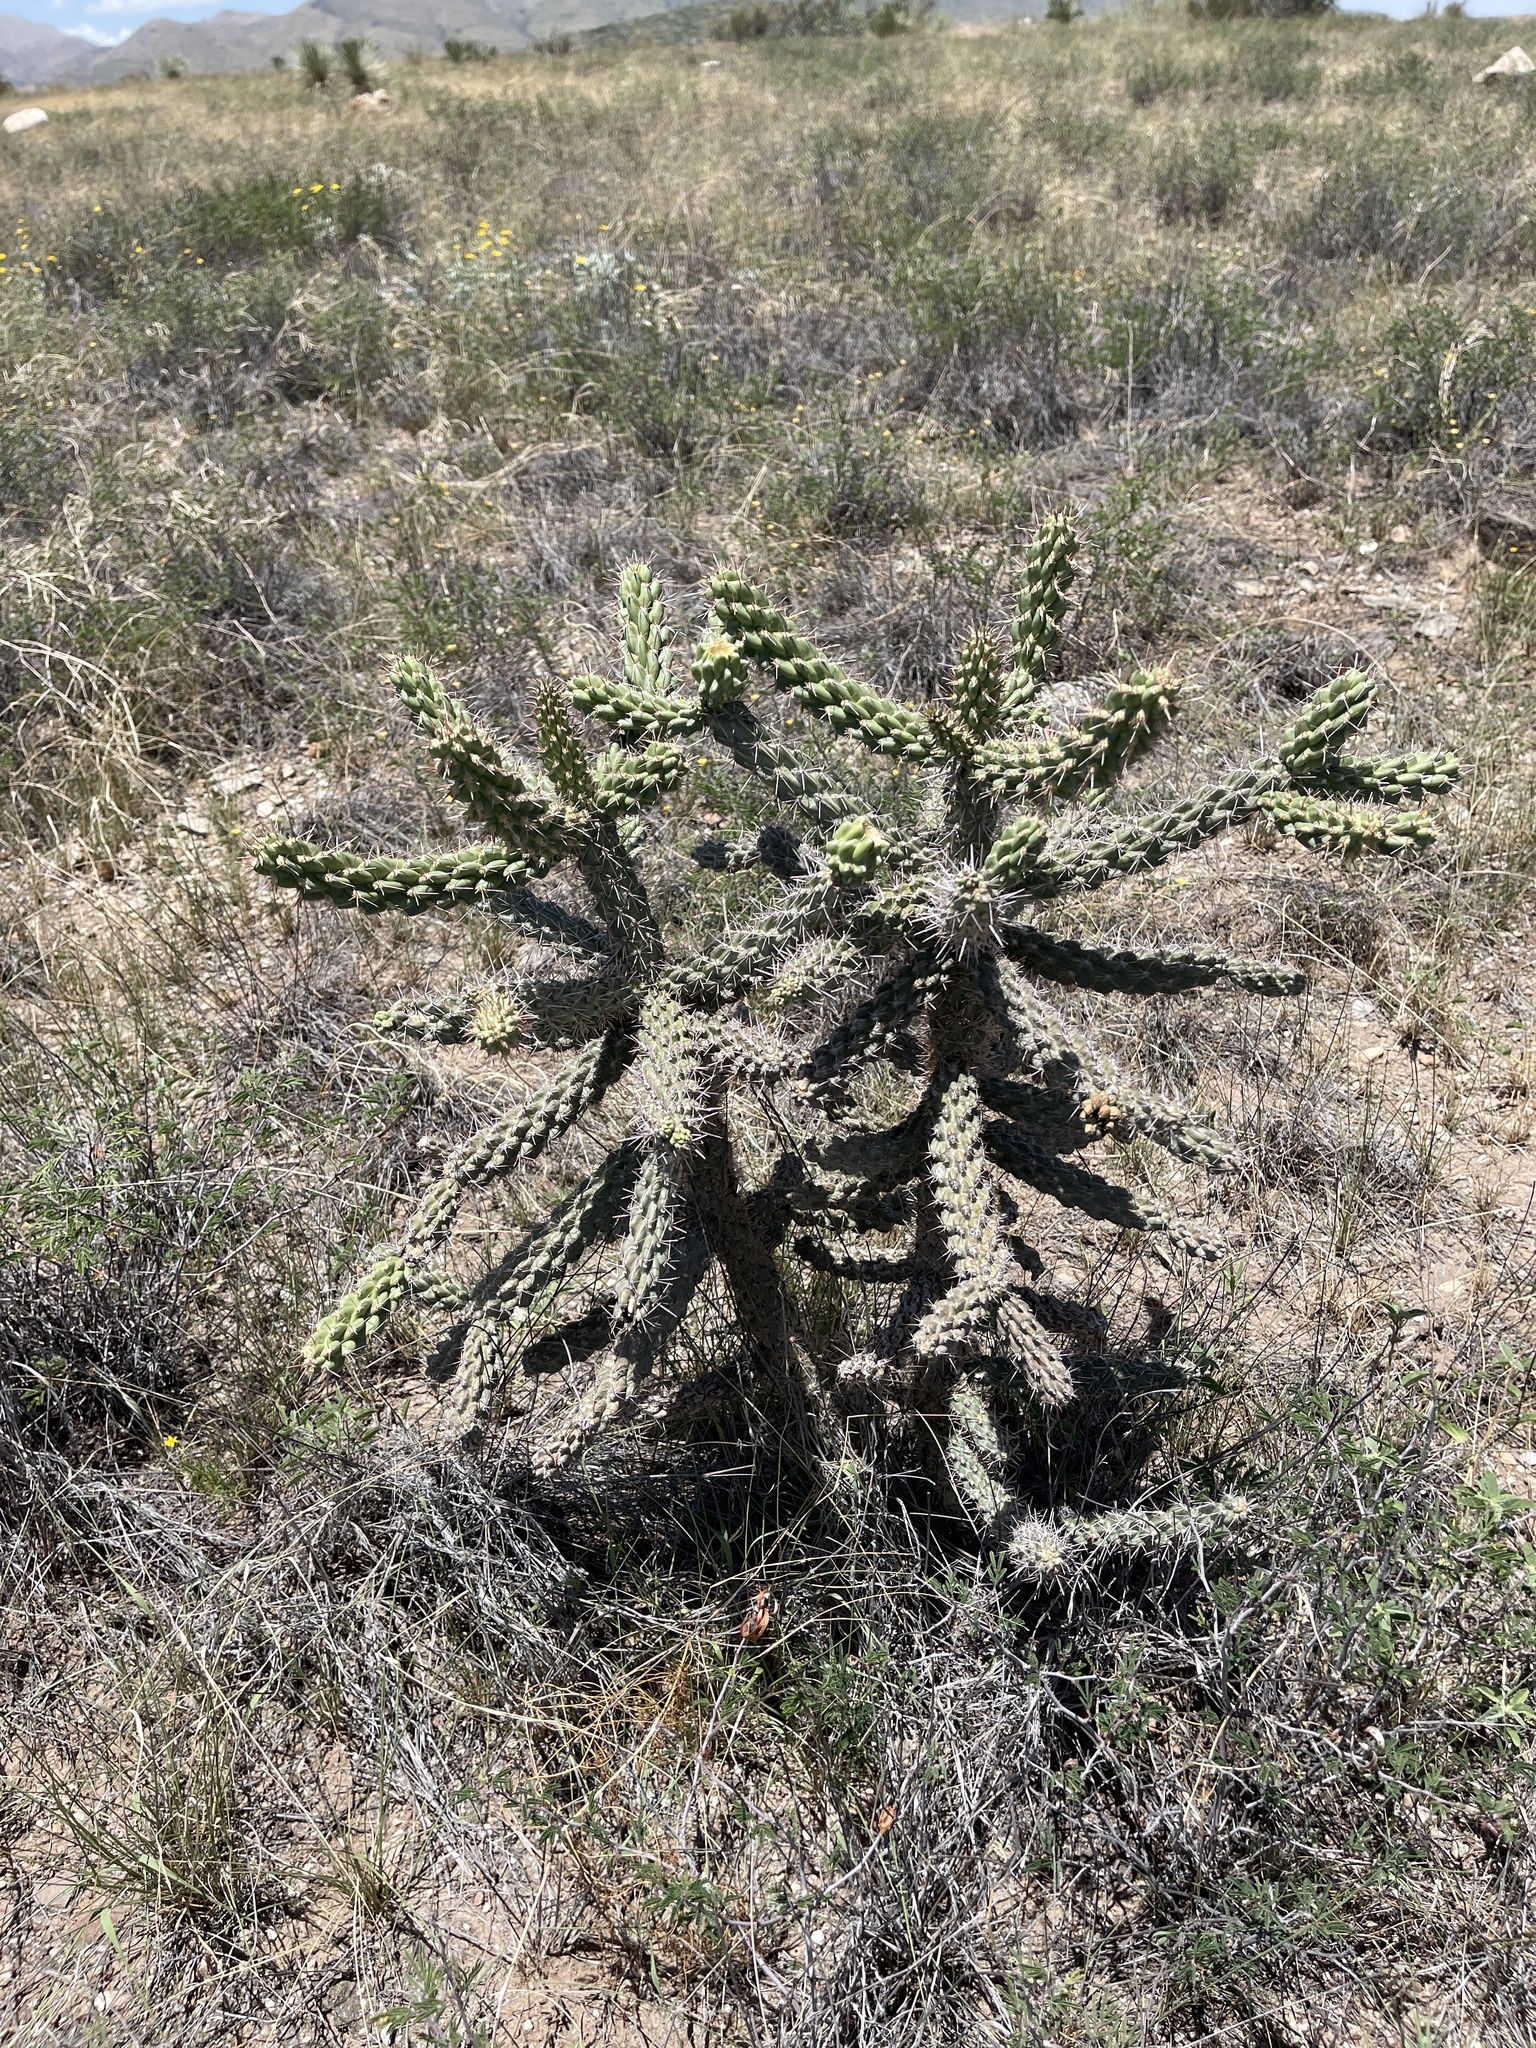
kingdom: Plantae
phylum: Tracheophyta
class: Magnoliopsida
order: Caryophyllales
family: Cactaceae
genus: Cylindropuntia
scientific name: Cylindropuntia imbricata
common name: Candelabrum cactus
